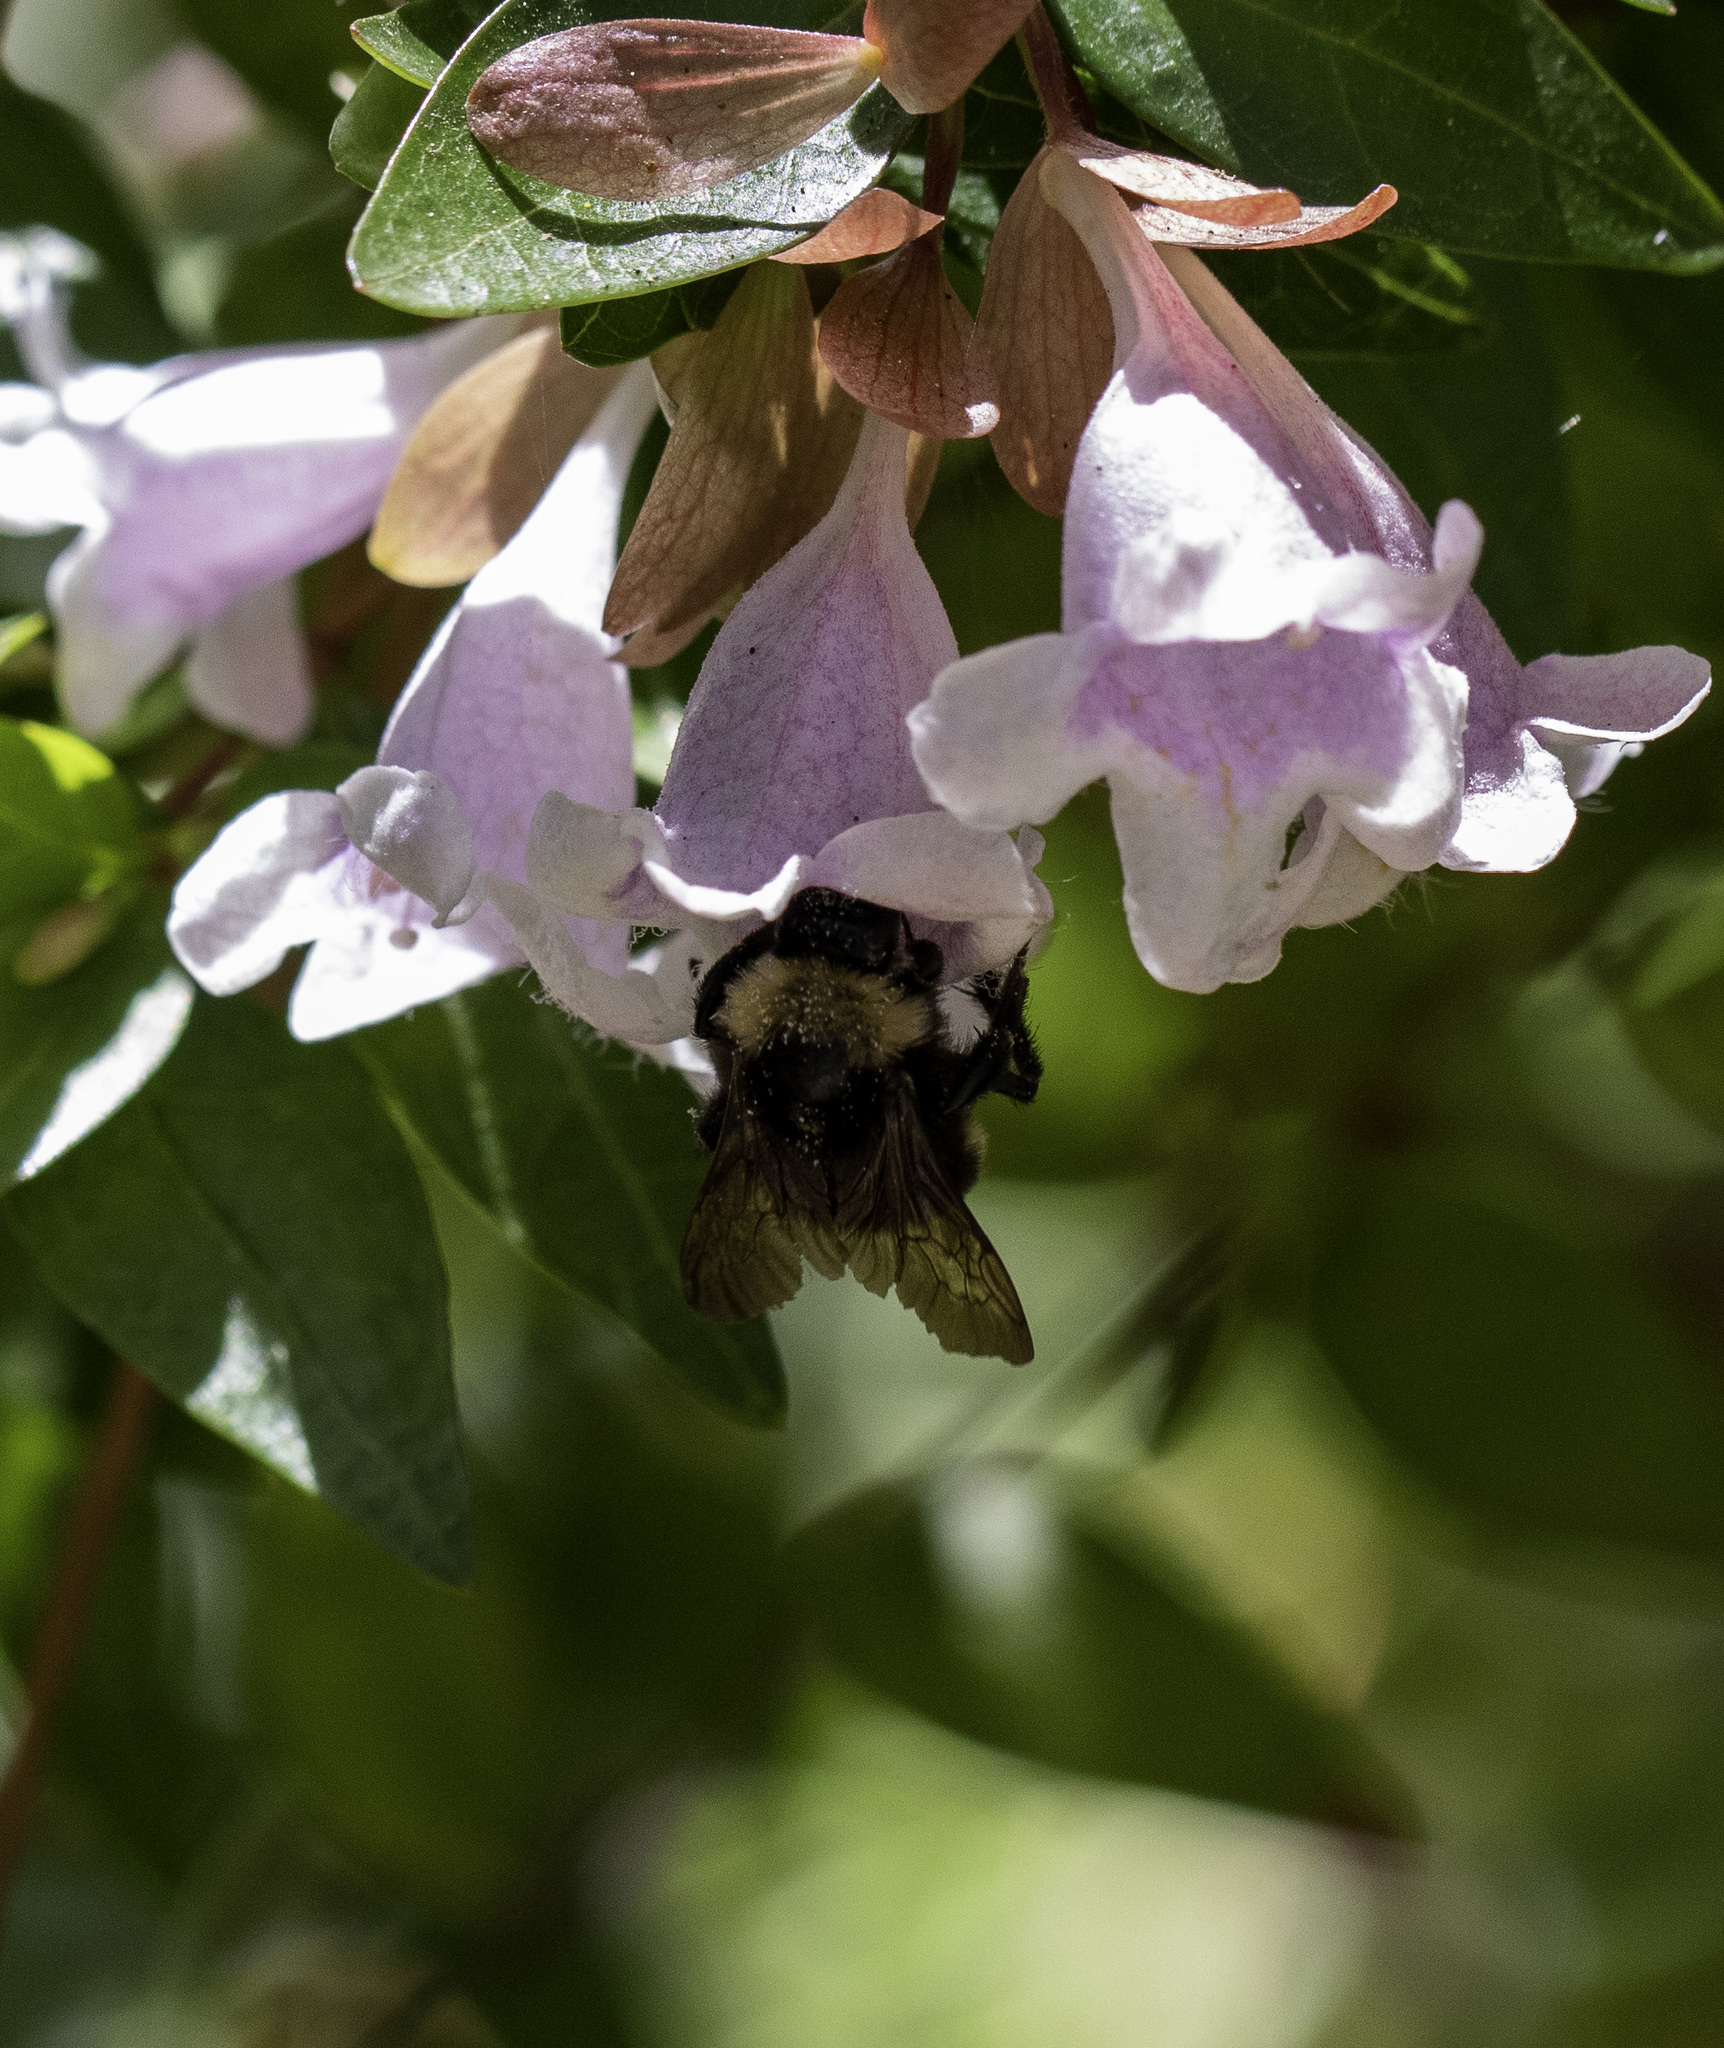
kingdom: Animalia
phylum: Arthropoda
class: Insecta
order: Hymenoptera
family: Apidae
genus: Bombus
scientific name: Bombus californicus
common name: California bumble bee
